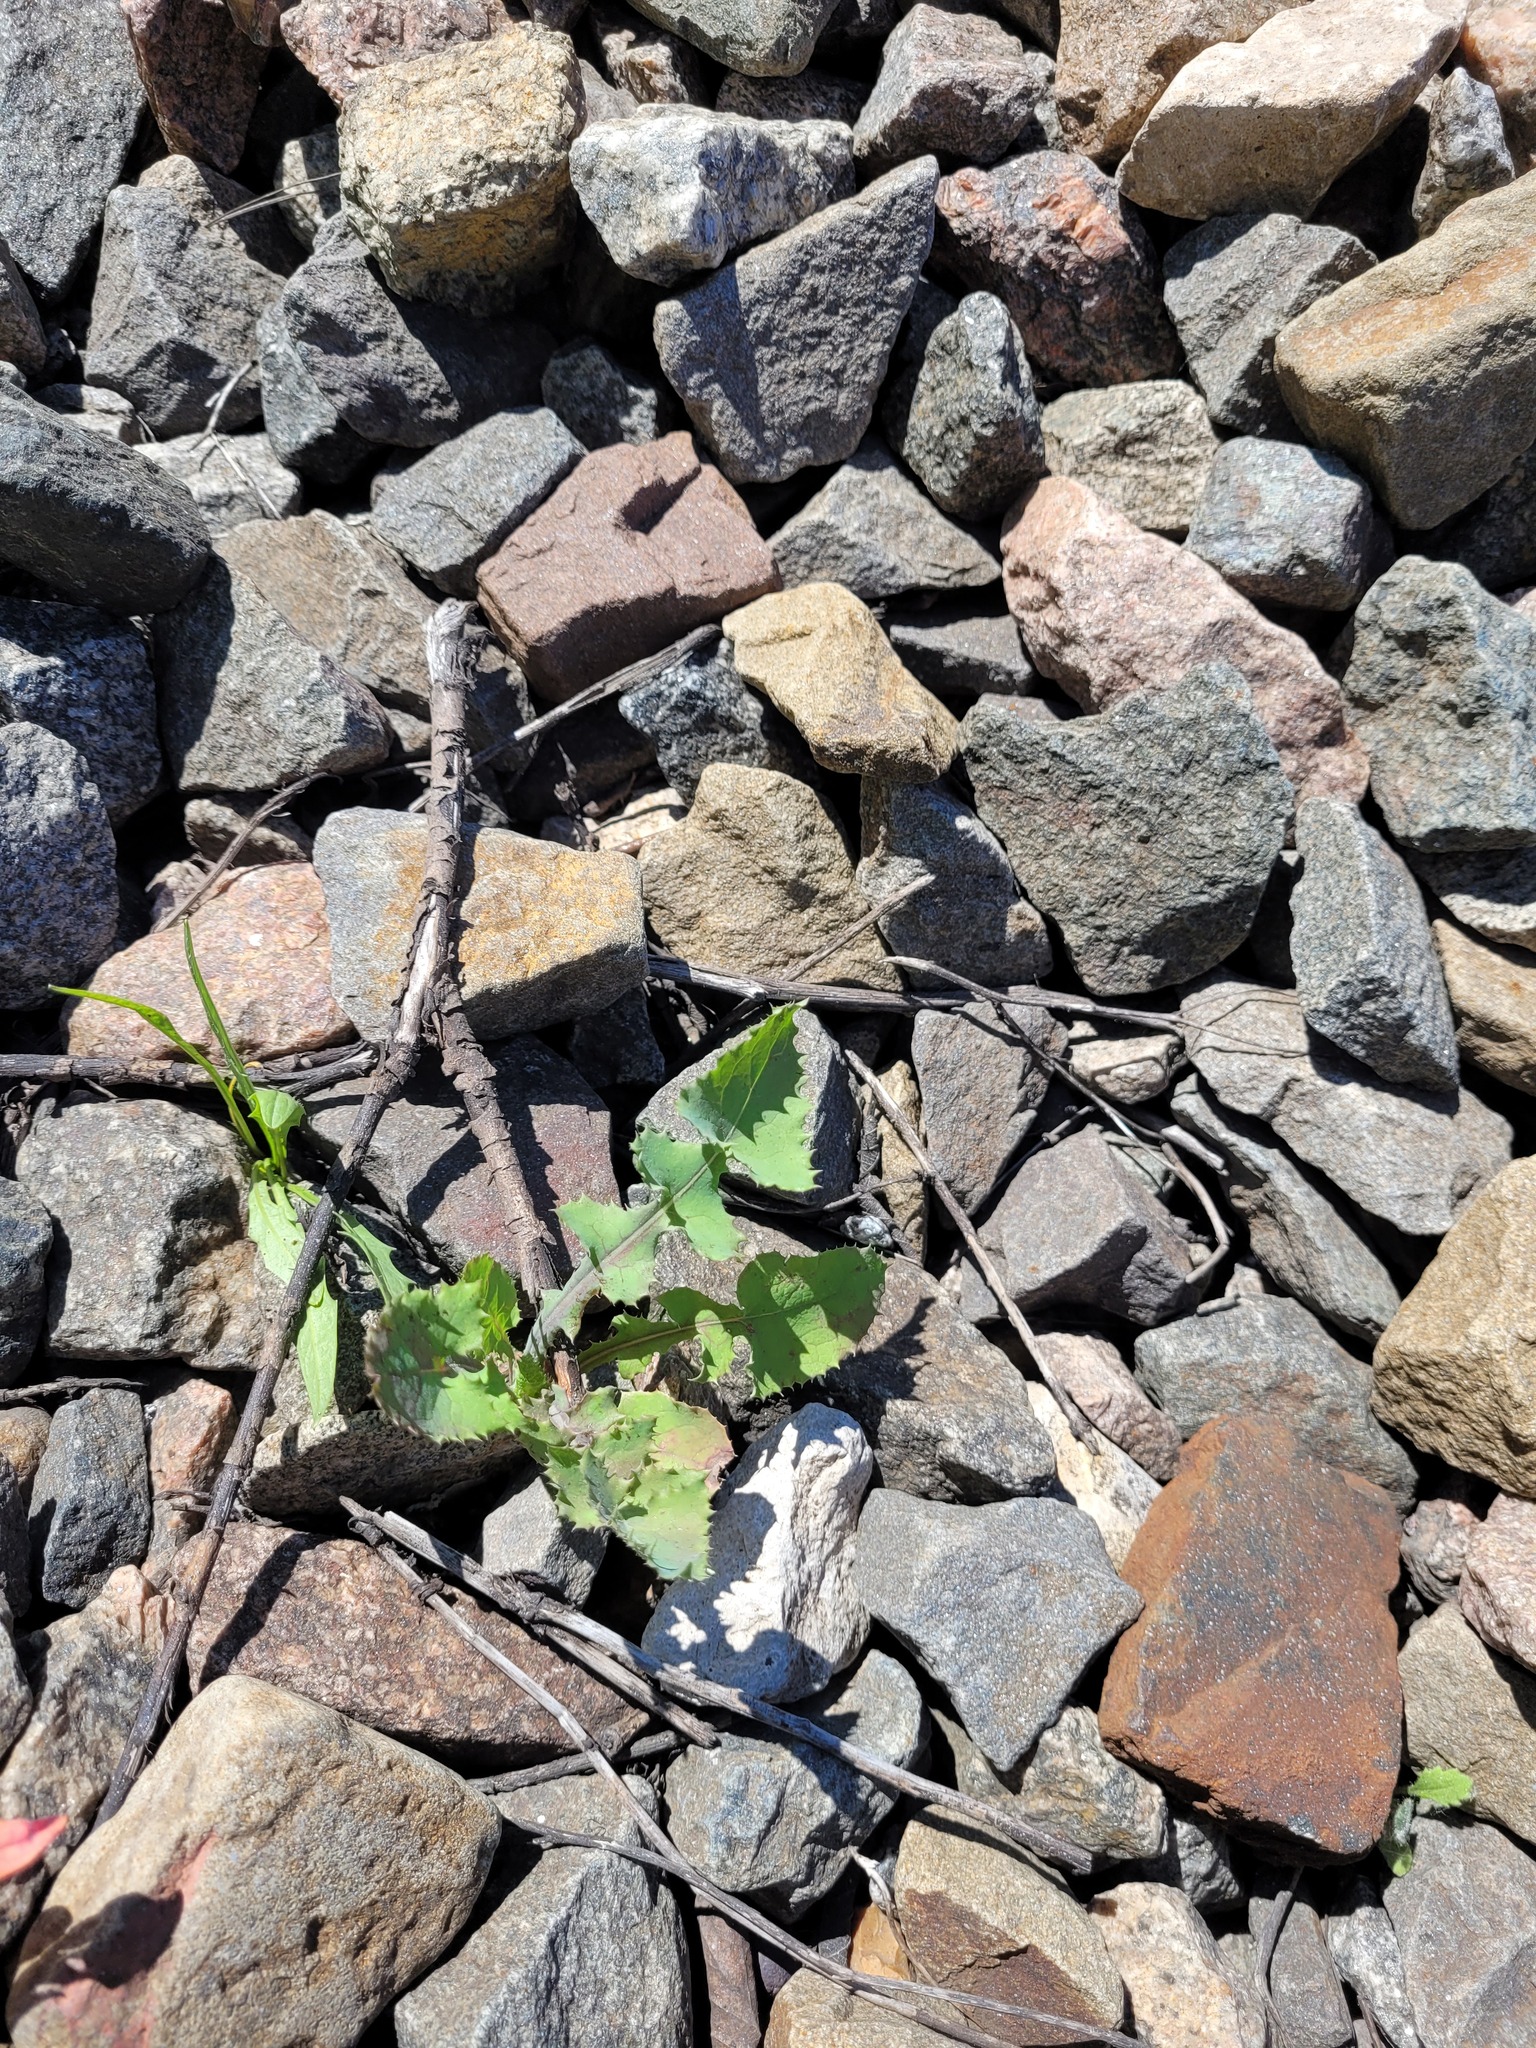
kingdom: Plantae
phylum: Tracheophyta
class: Magnoliopsida
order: Asterales
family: Asteraceae
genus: Sonchus
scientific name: Sonchus oleraceus
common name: Common sowthistle
